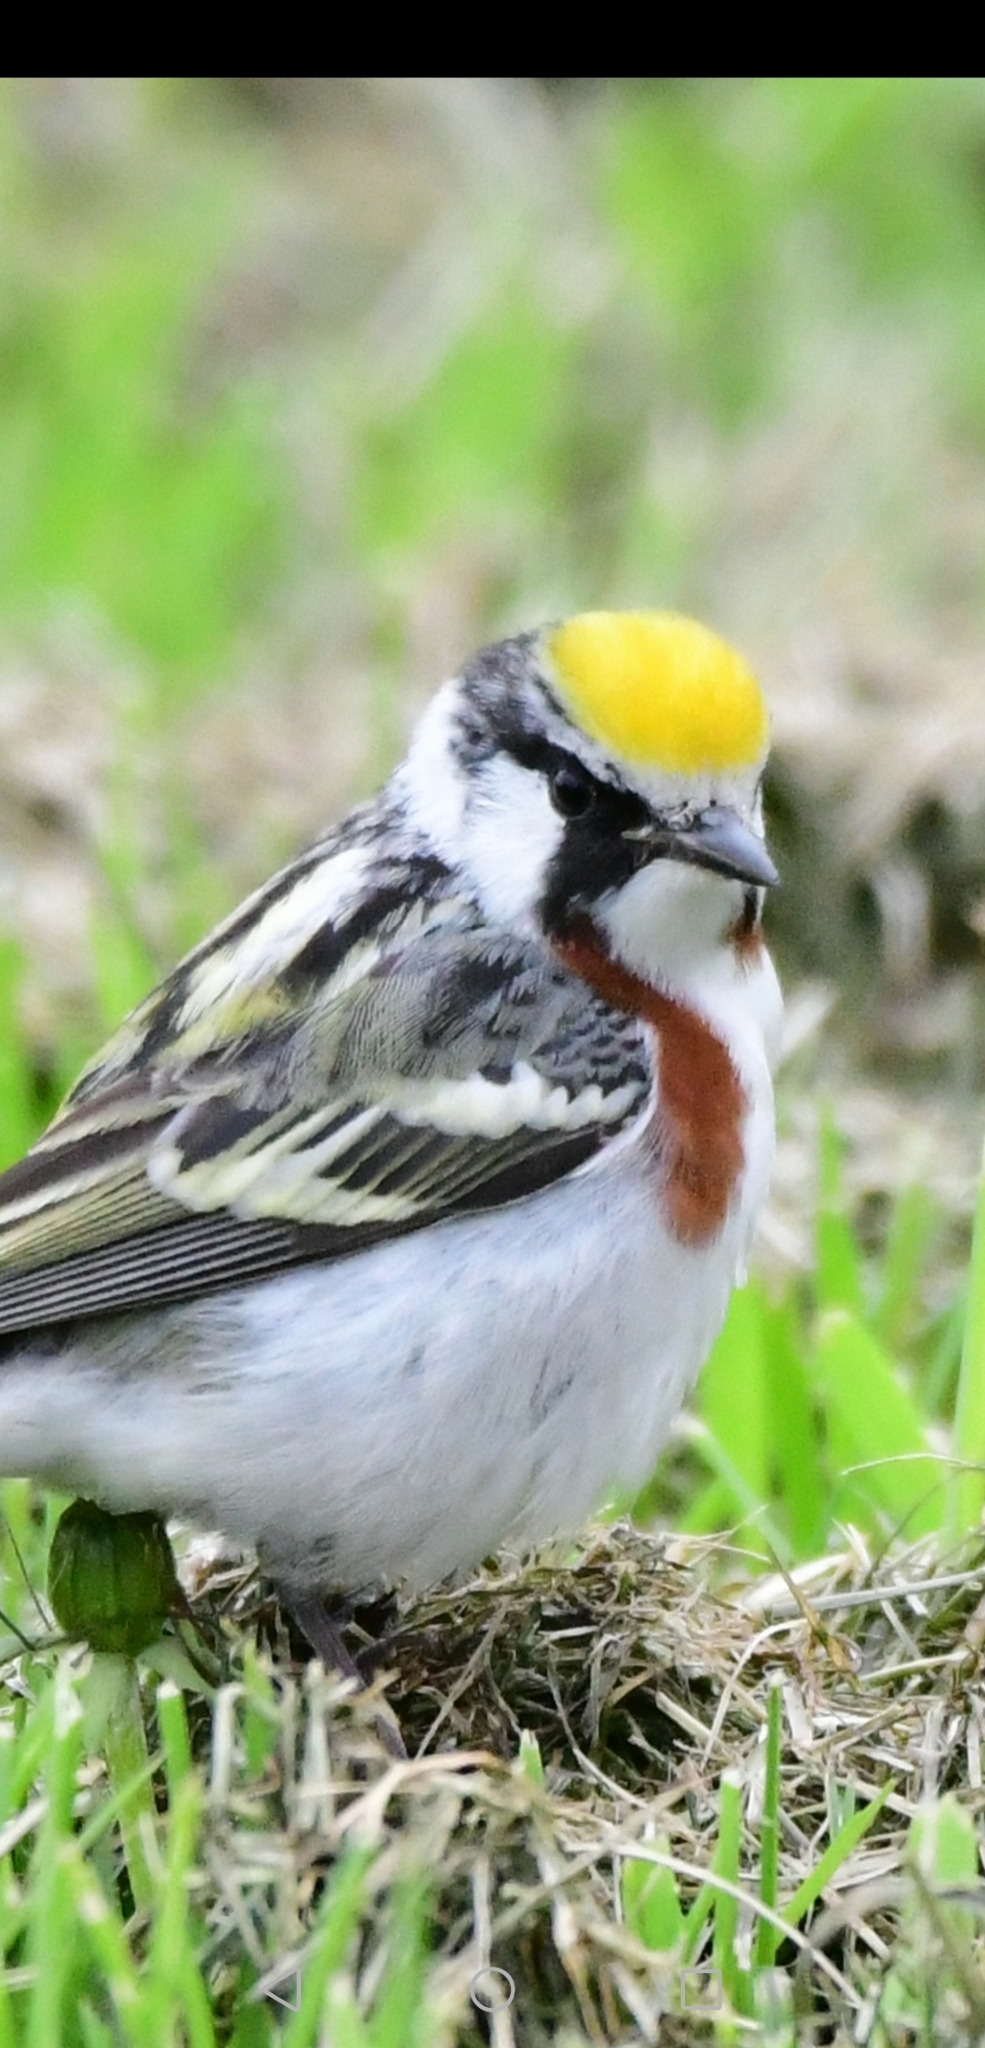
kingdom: Animalia
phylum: Chordata
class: Aves
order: Passeriformes
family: Parulidae
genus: Setophaga
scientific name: Setophaga pensylvanica
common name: Chestnut-sided warbler
